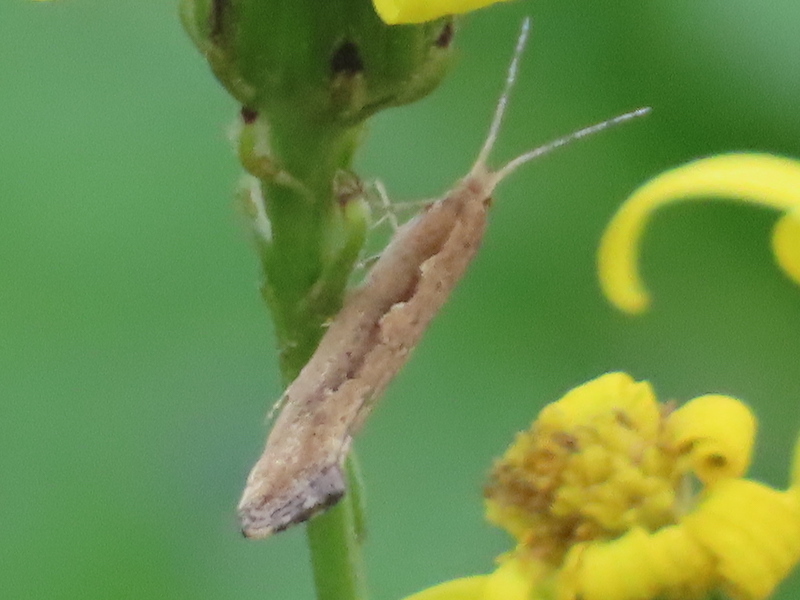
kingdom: Animalia
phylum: Arthropoda
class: Insecta
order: Lepidoptera
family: Plutellidae
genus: Plutella
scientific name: Plutella xylostella
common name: Diamond-back moth
